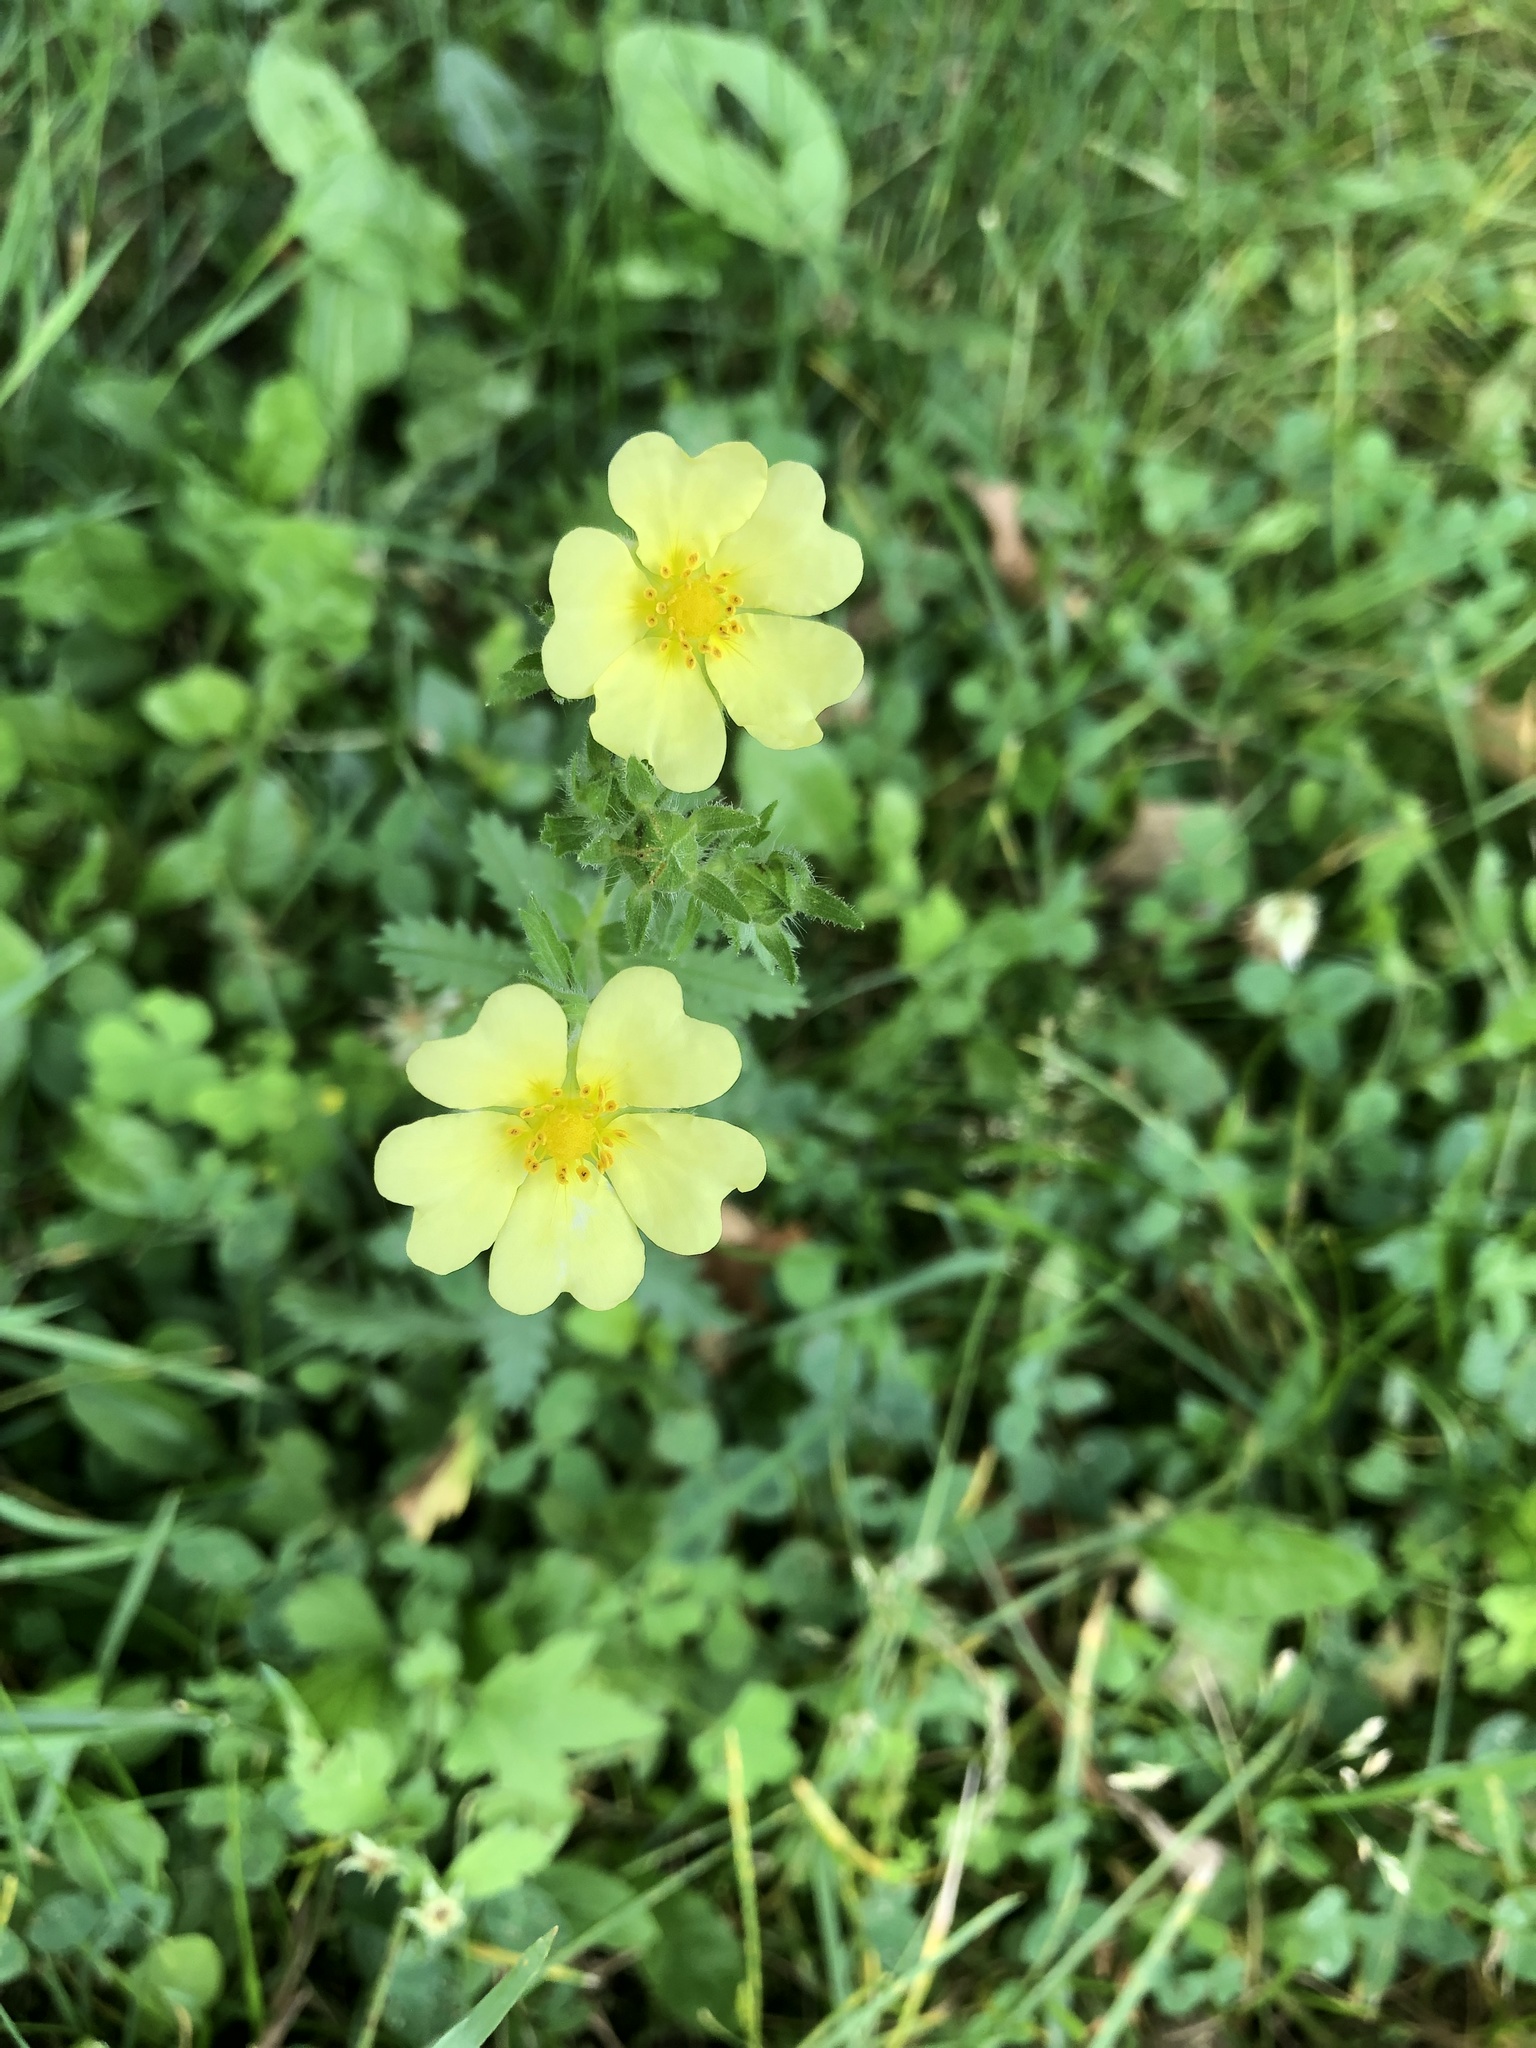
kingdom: Plantae
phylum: Tracheophyta
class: Magnoliopsida
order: Rosales
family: Rosaceae
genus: Potentilla
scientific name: Potentilla recta
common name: Sulphur cinquefoil
